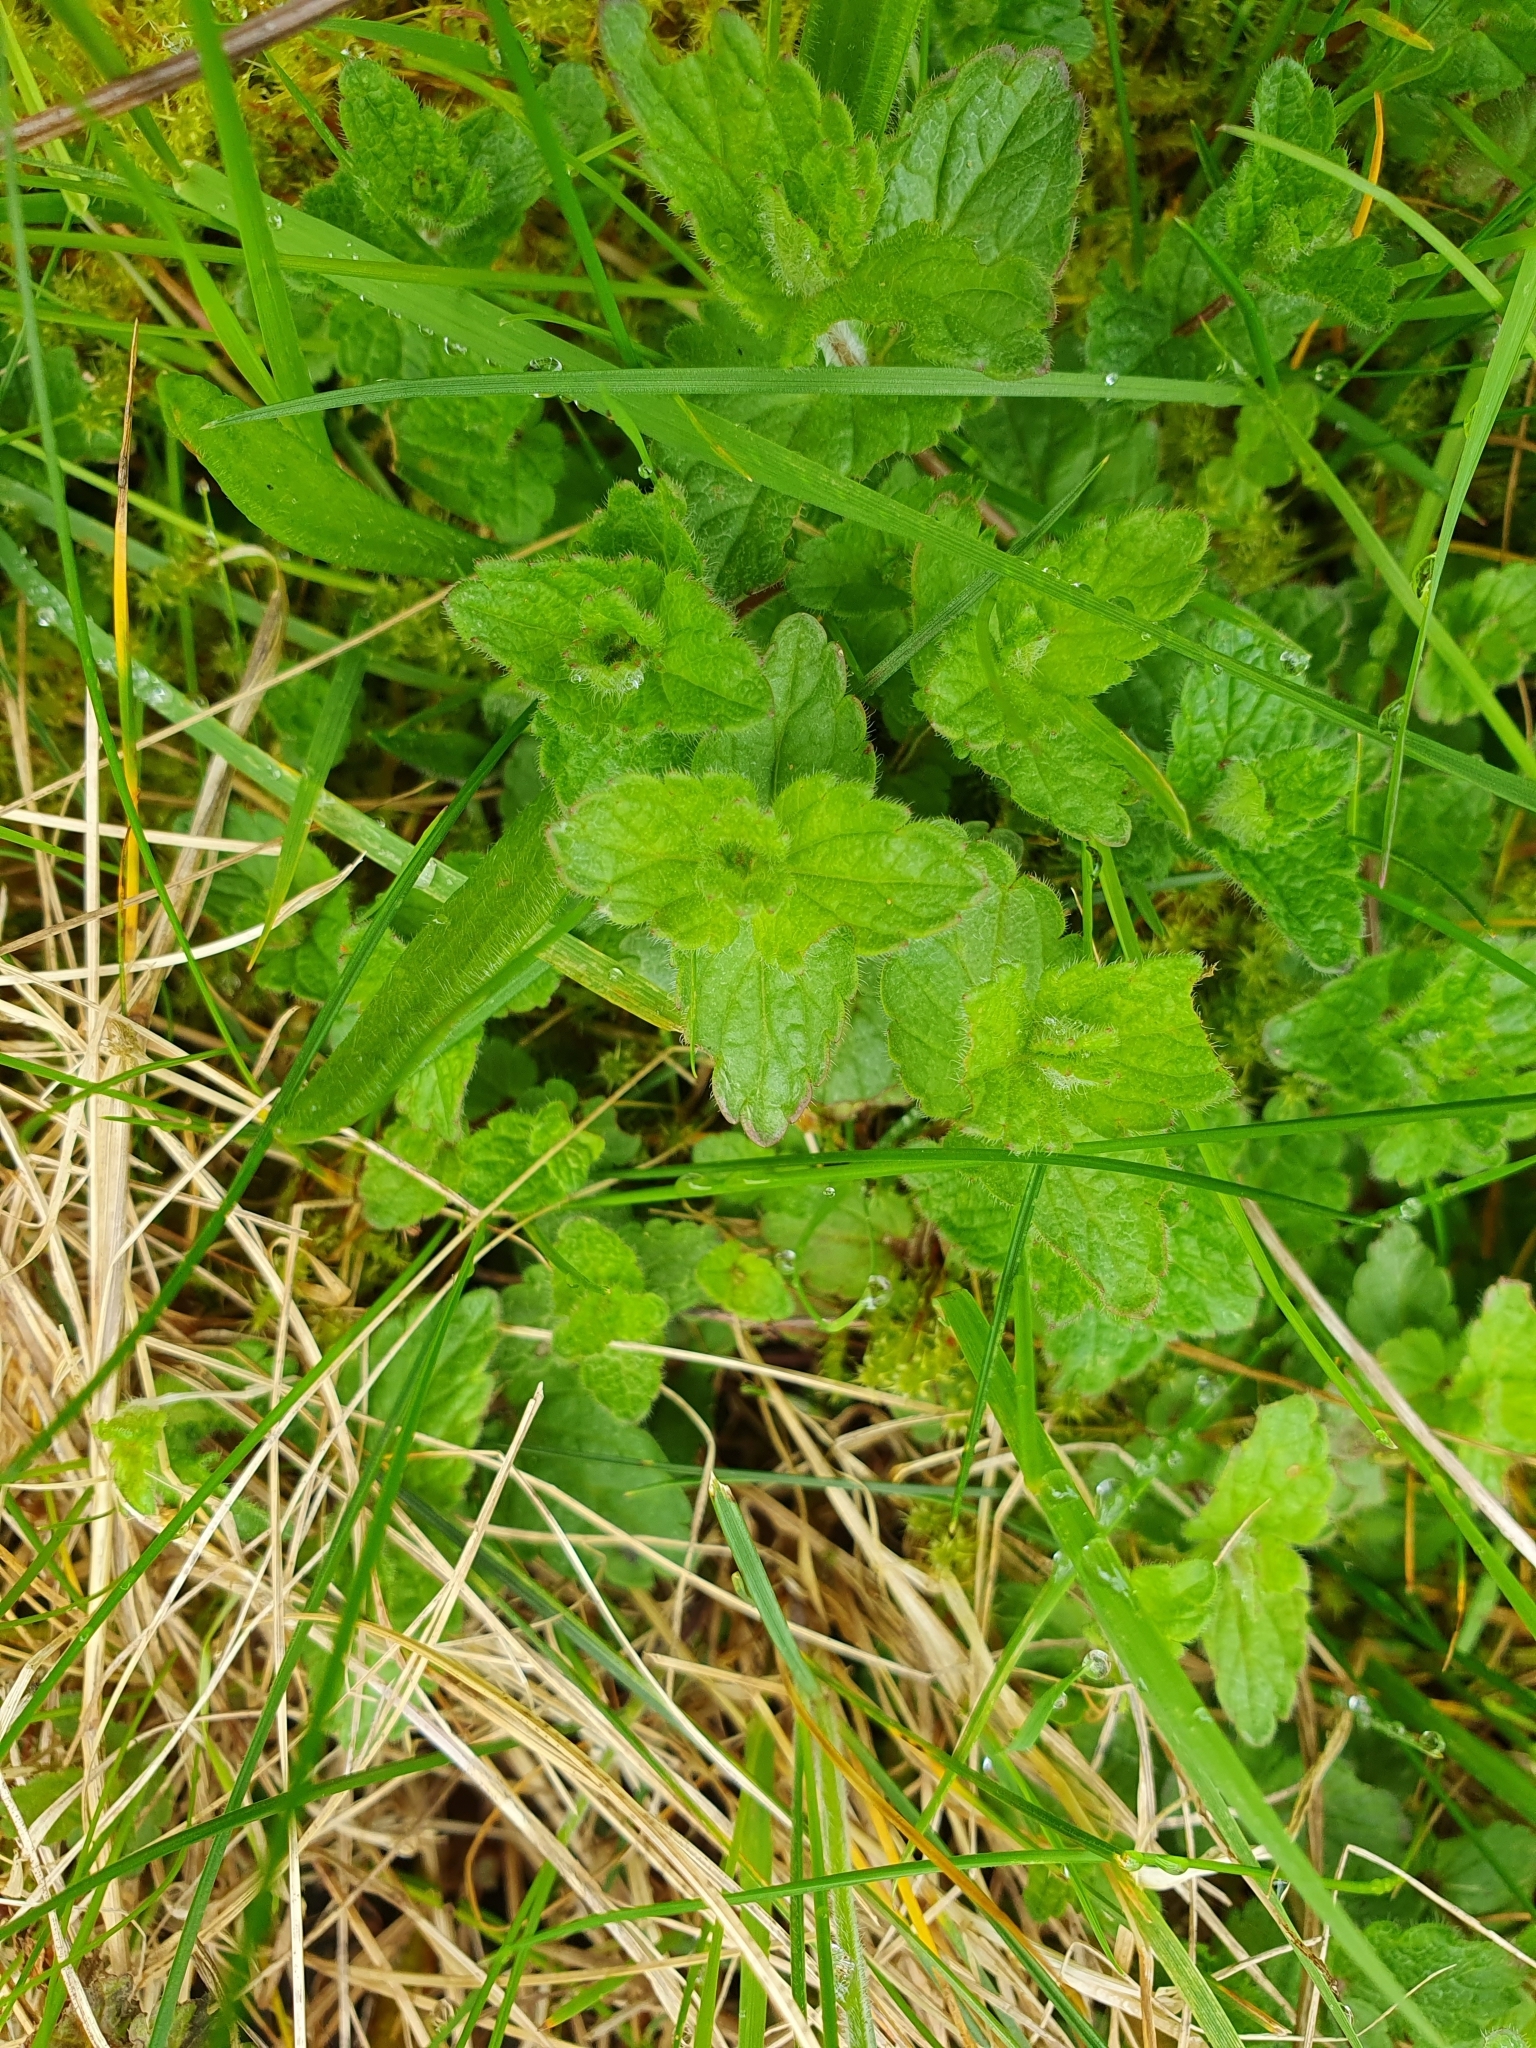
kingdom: Plantae
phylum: Tracheophyta
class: Magnoliopsida
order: Lamiales
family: Plantaginaceae
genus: Veronica
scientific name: Veronica chamaedrys
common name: Germander speedwell
